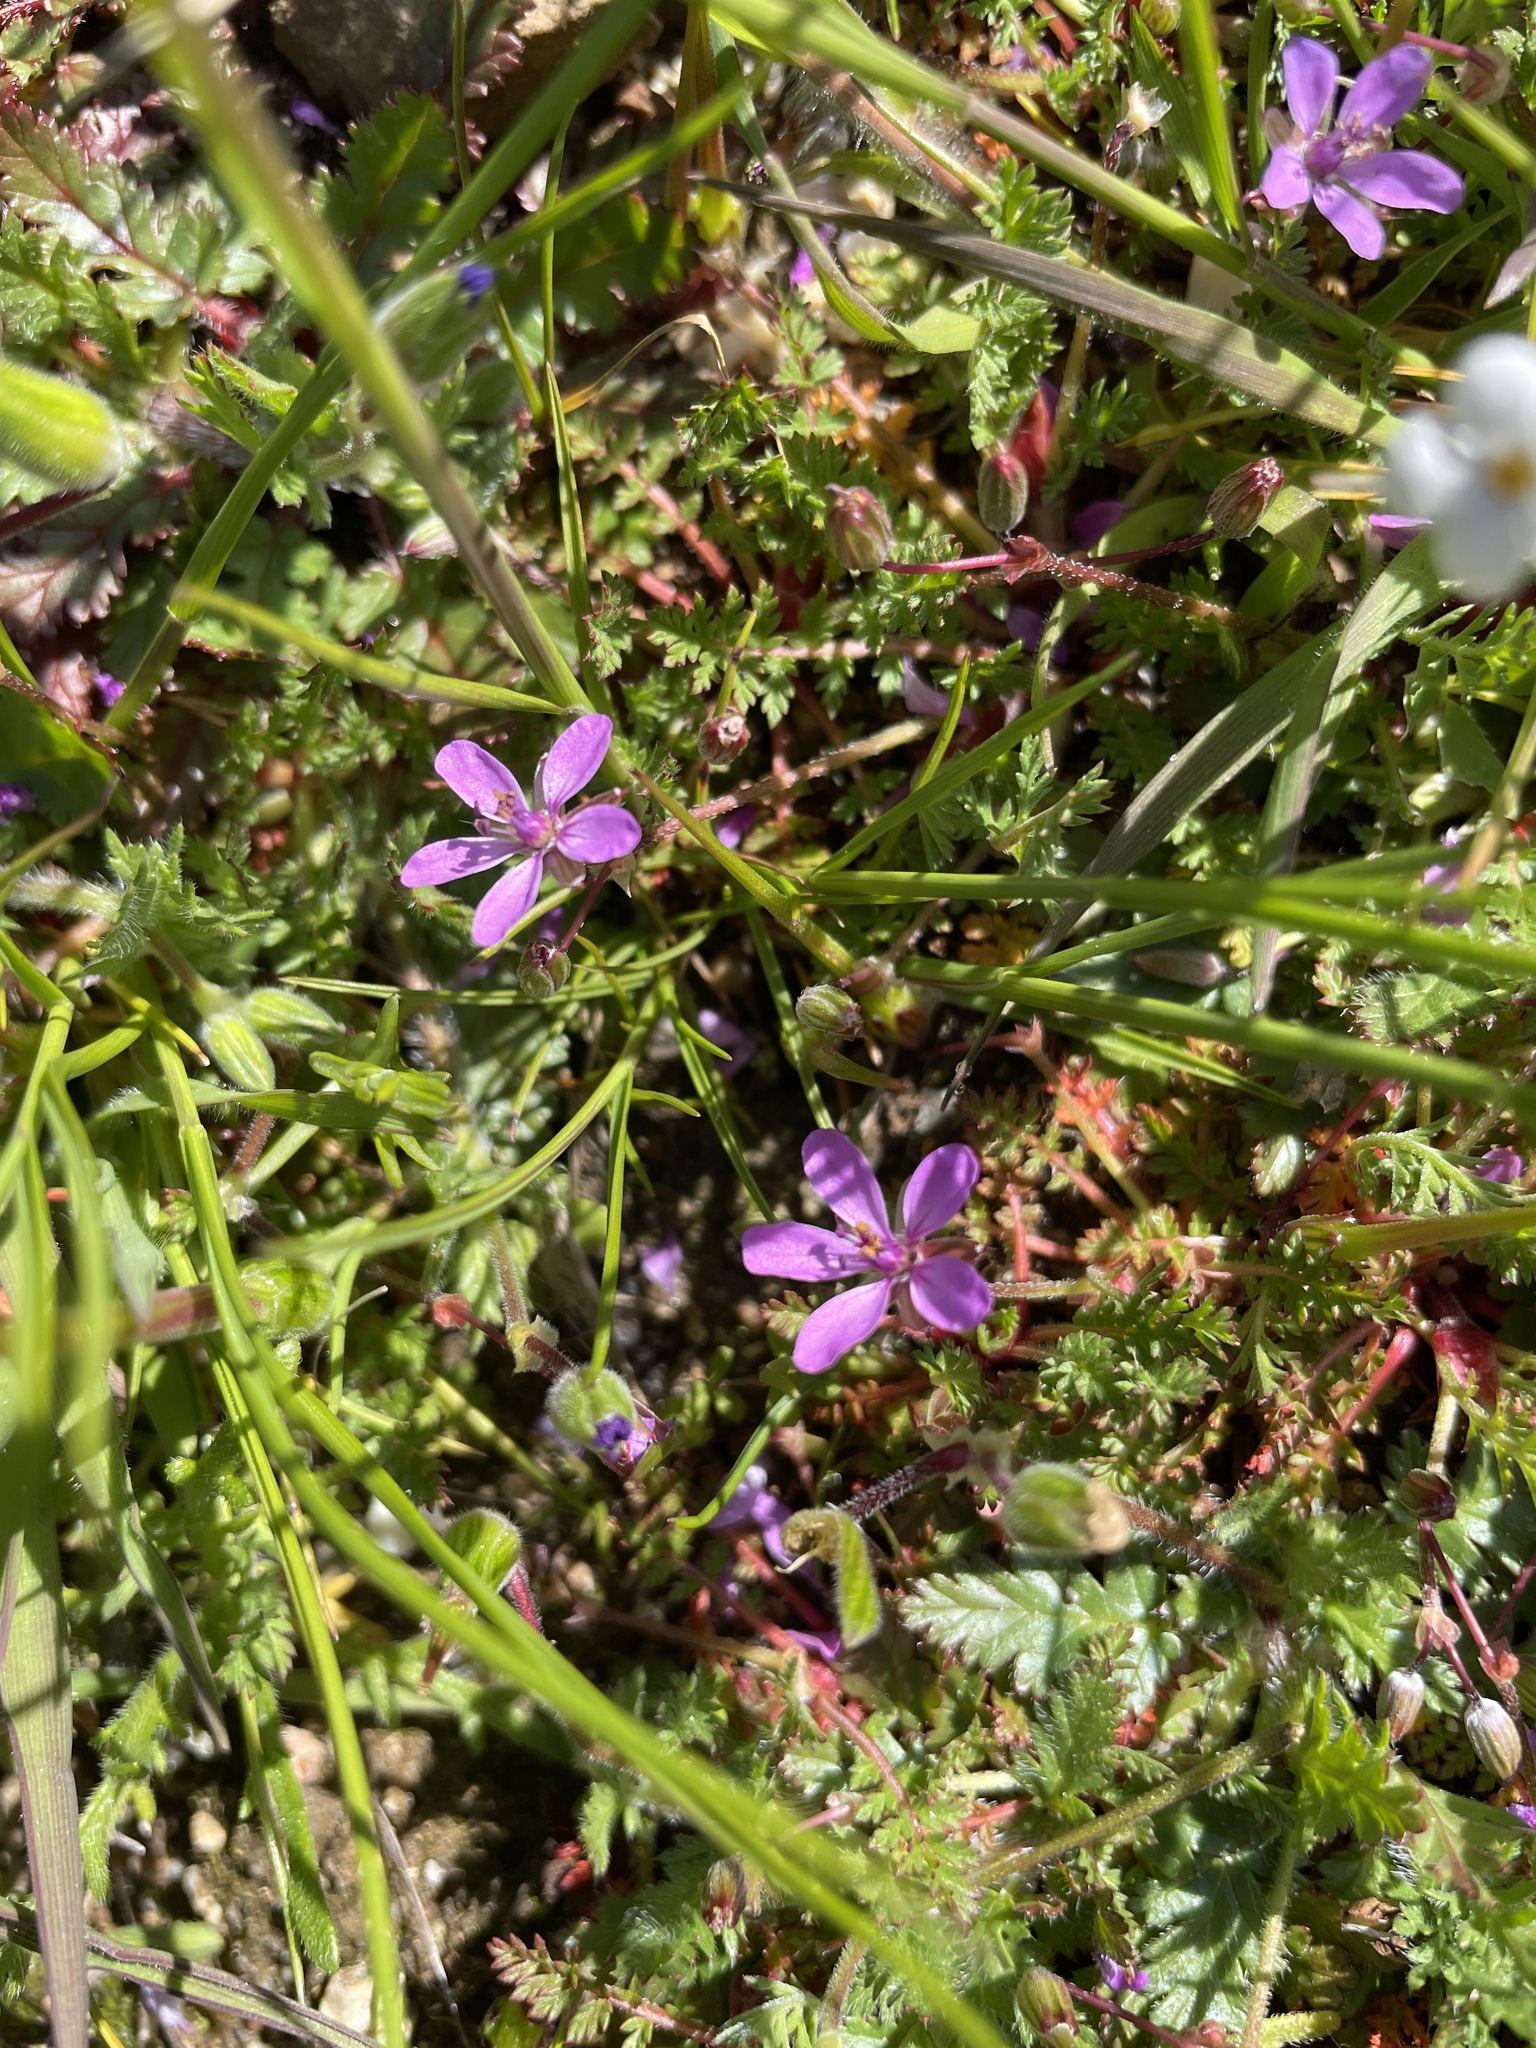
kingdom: Plantae
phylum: Tracheophyta
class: Magnoliopsida
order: Geraniales
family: Geraniaceae
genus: Erodium
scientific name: Erodium cicutarium
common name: Common stork's-bill
